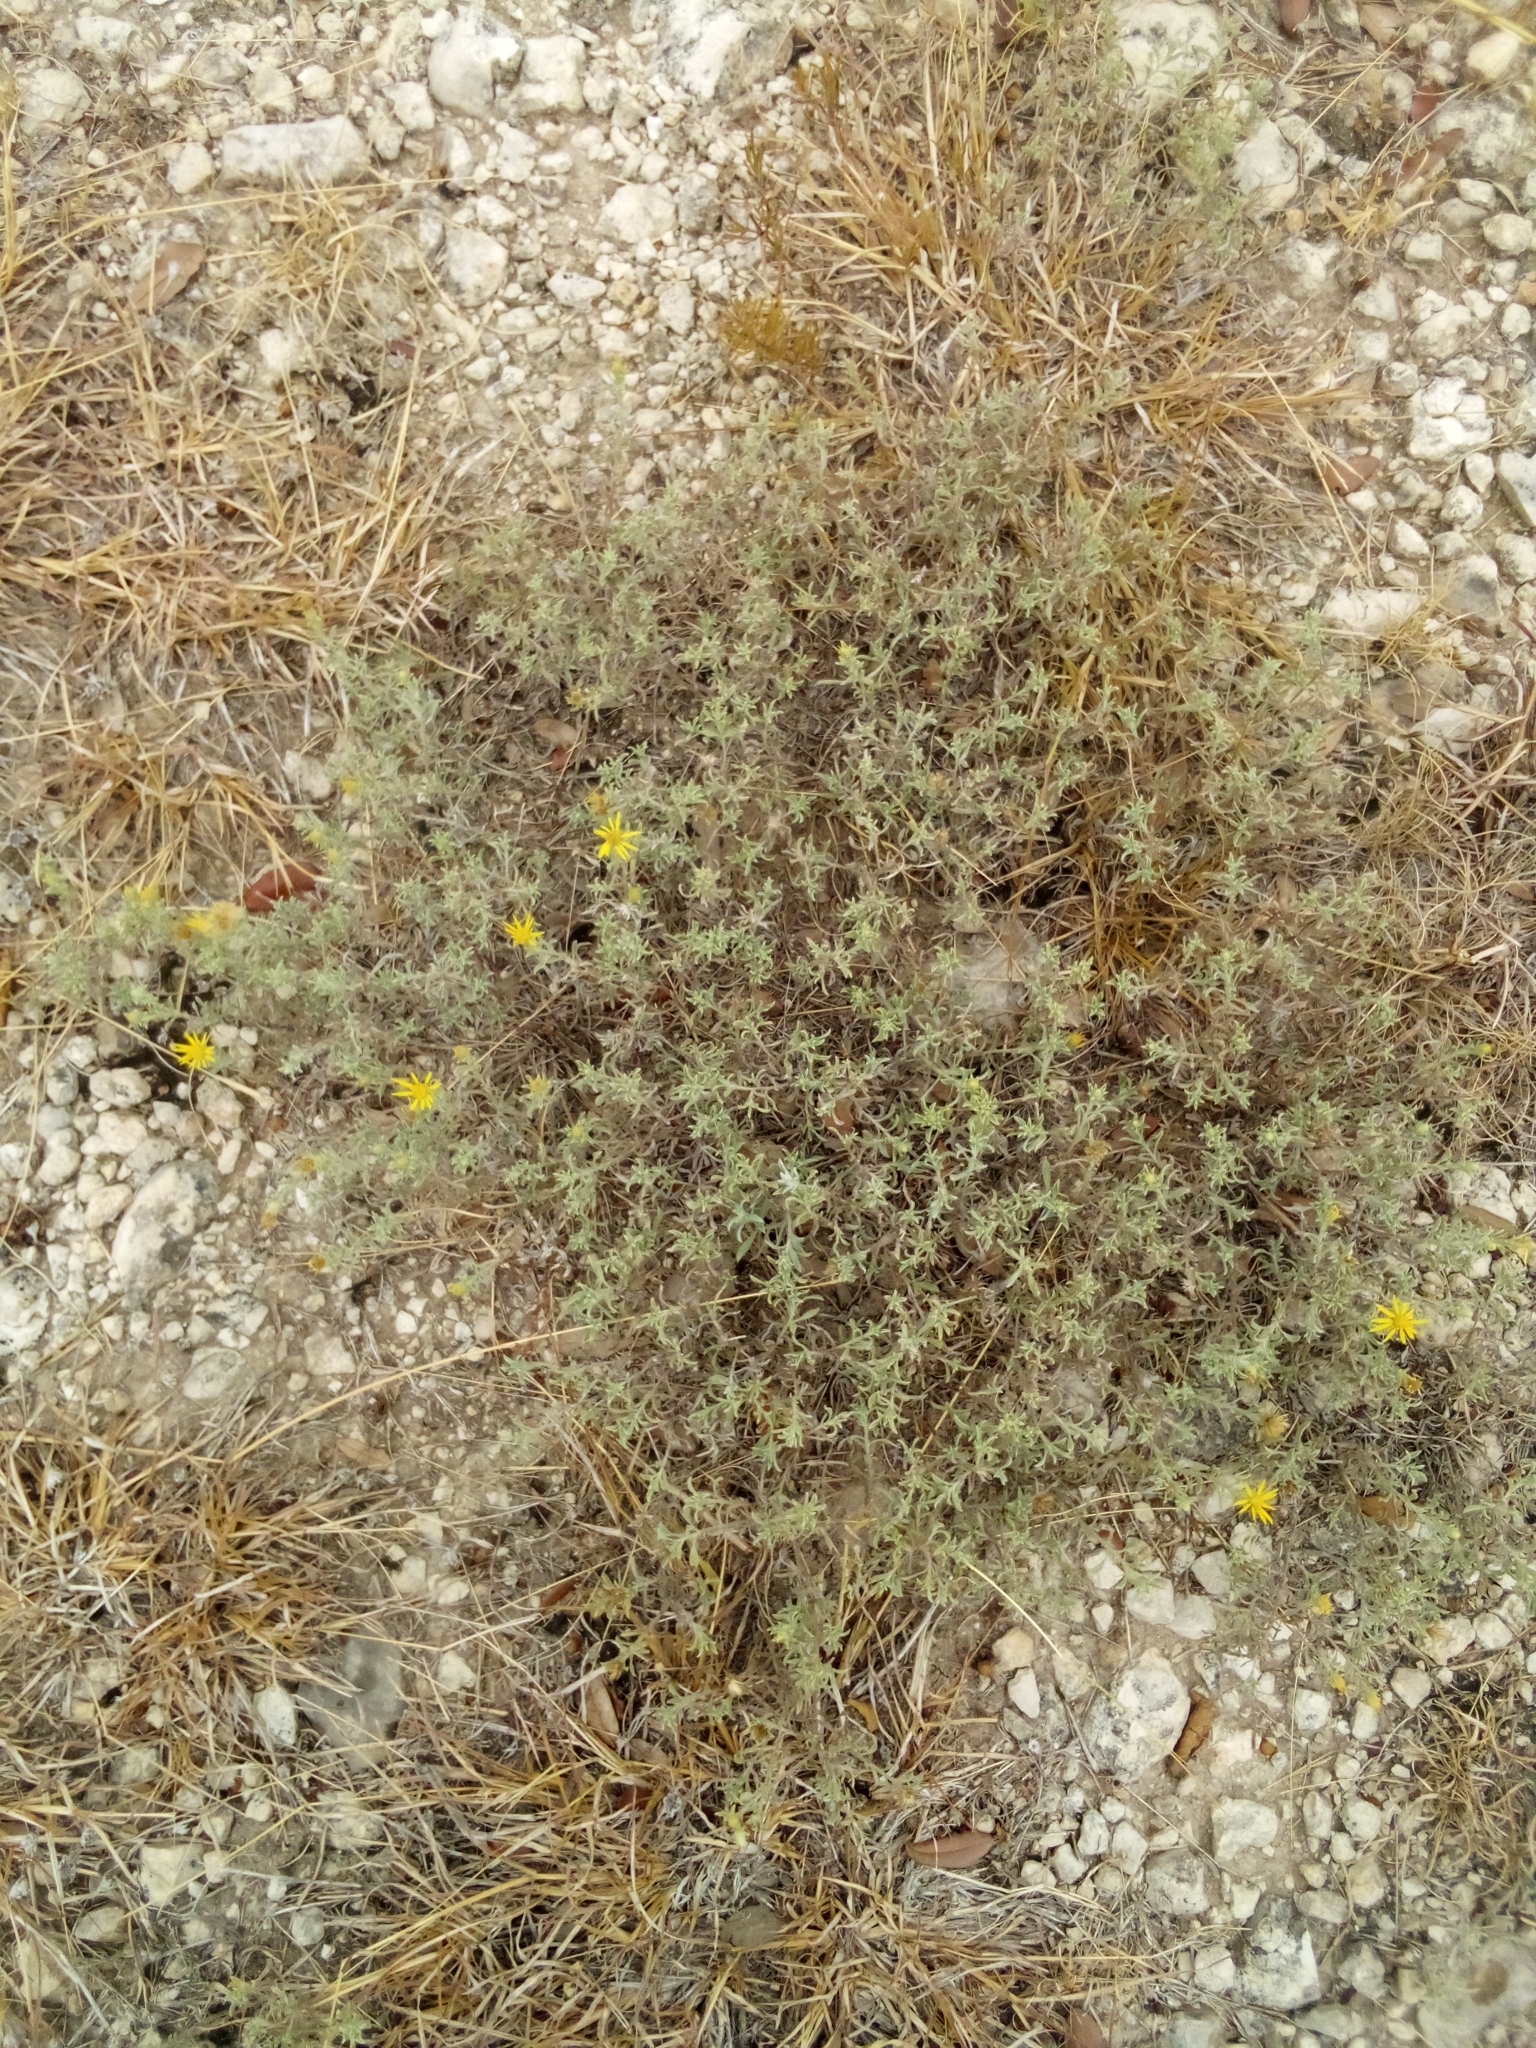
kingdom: Plantae
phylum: Tracheophyta
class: Magnoliopsida
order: Asterales
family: Asteraceae
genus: Heterotheca
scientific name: Heterotheca canescens
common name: Hoary golden-aster
